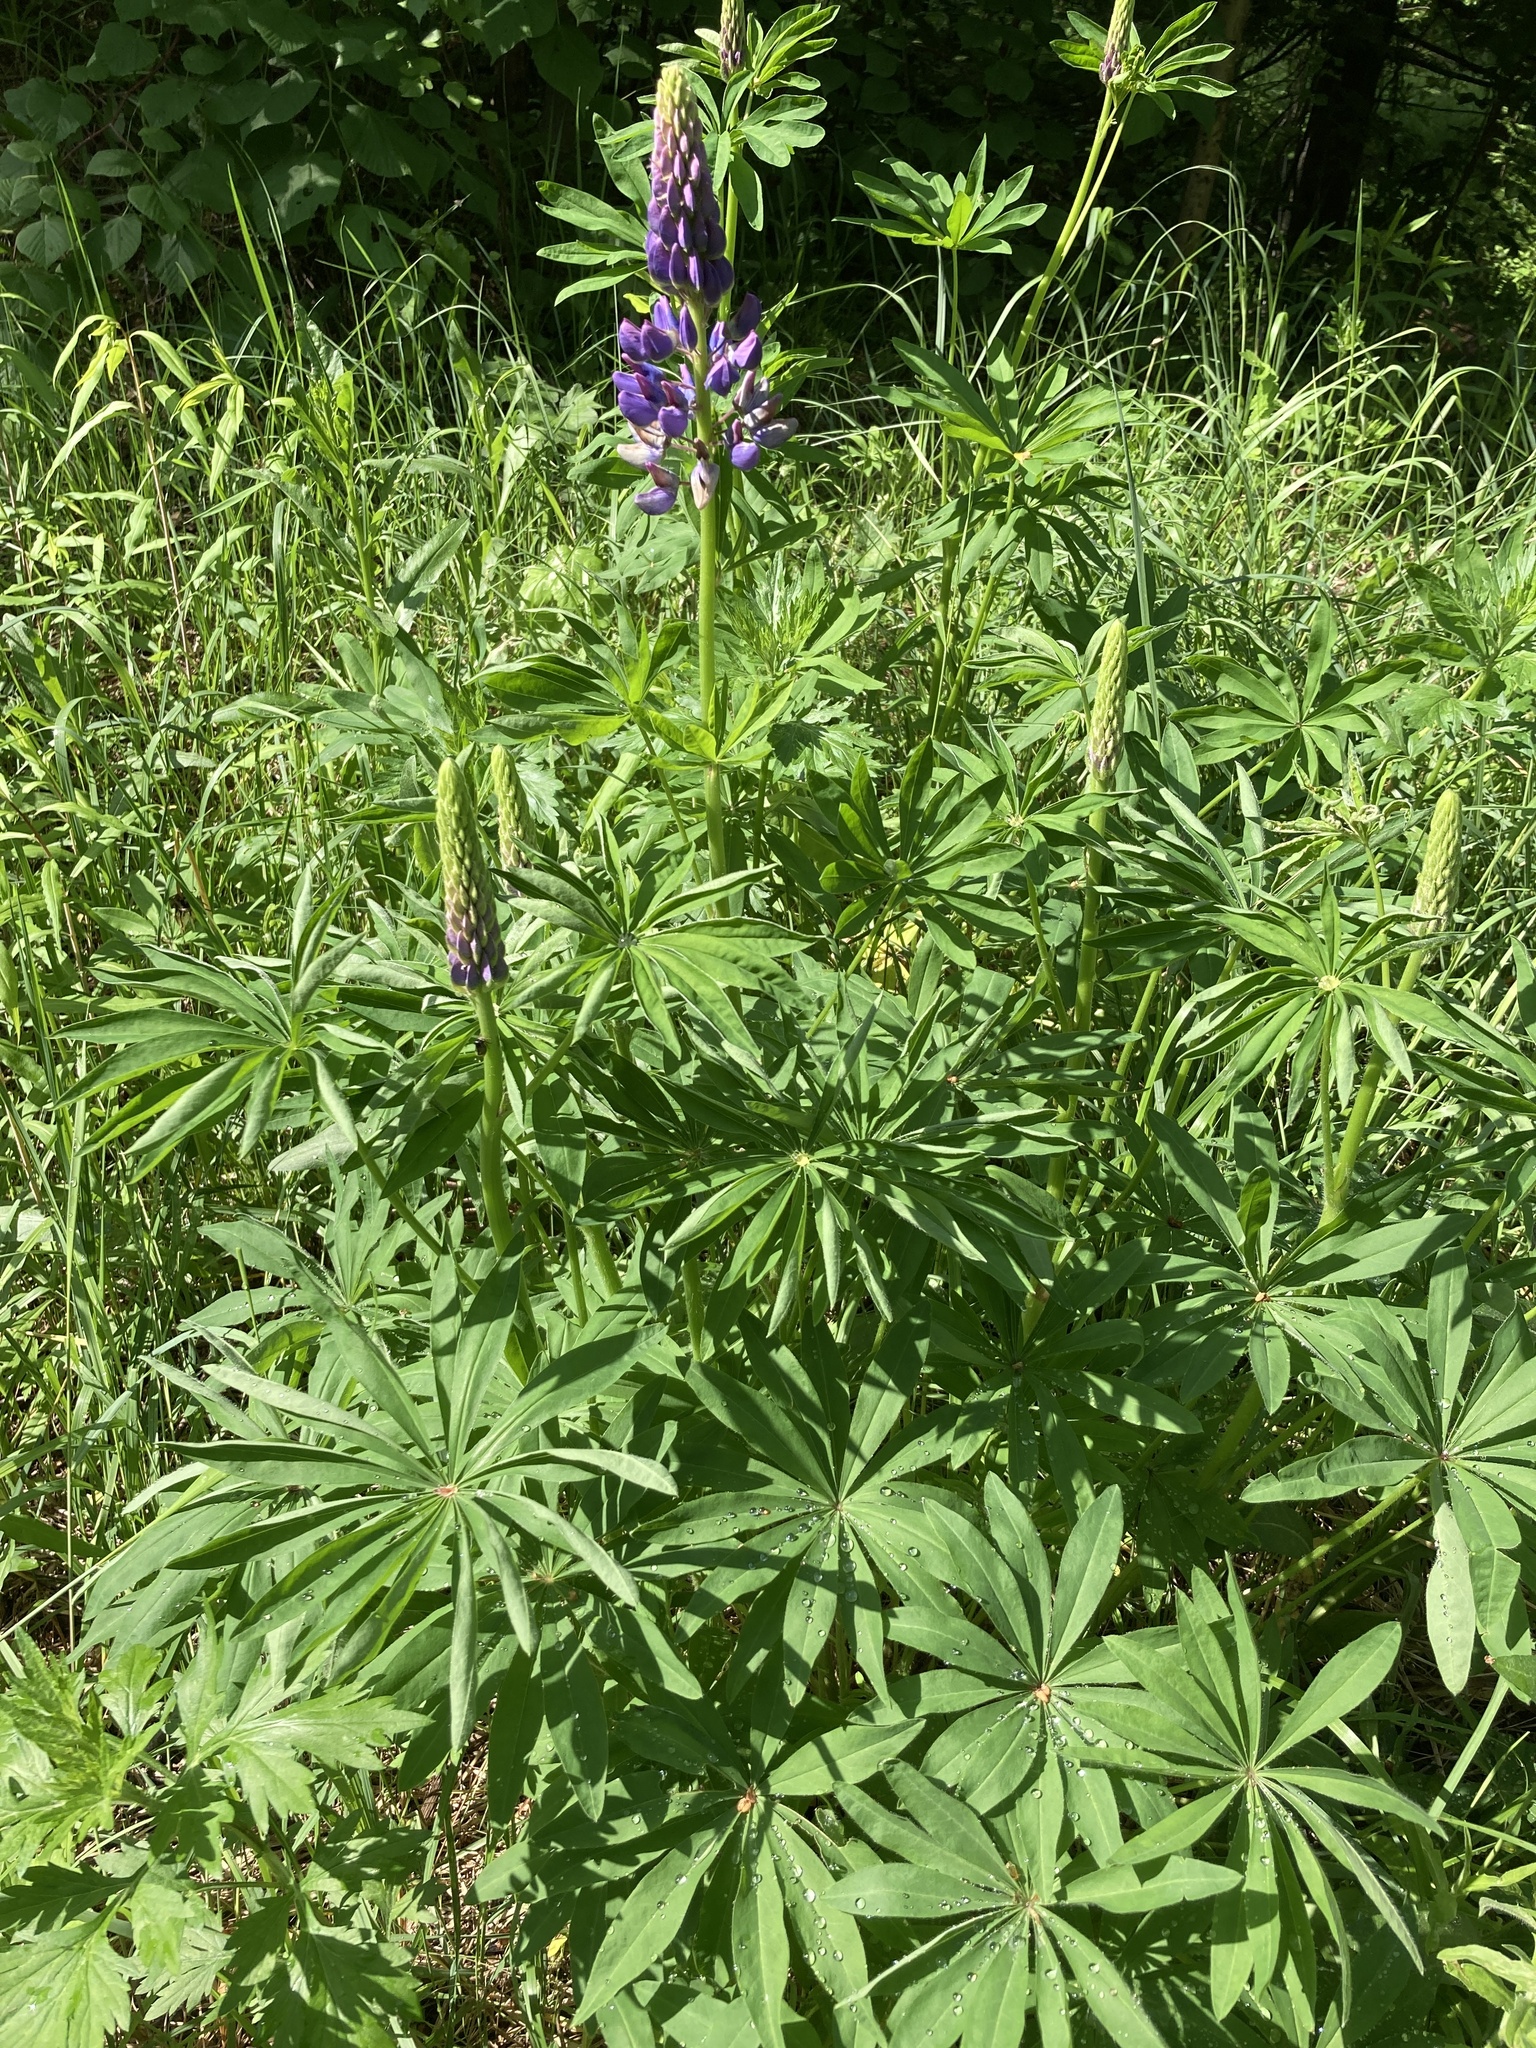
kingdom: Plantae
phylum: Tracheophyta
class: Magnoliopsida
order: Fabales
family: Fabaceae
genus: Lupinus
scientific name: Lupinus polyphyllus
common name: Garden lupin
